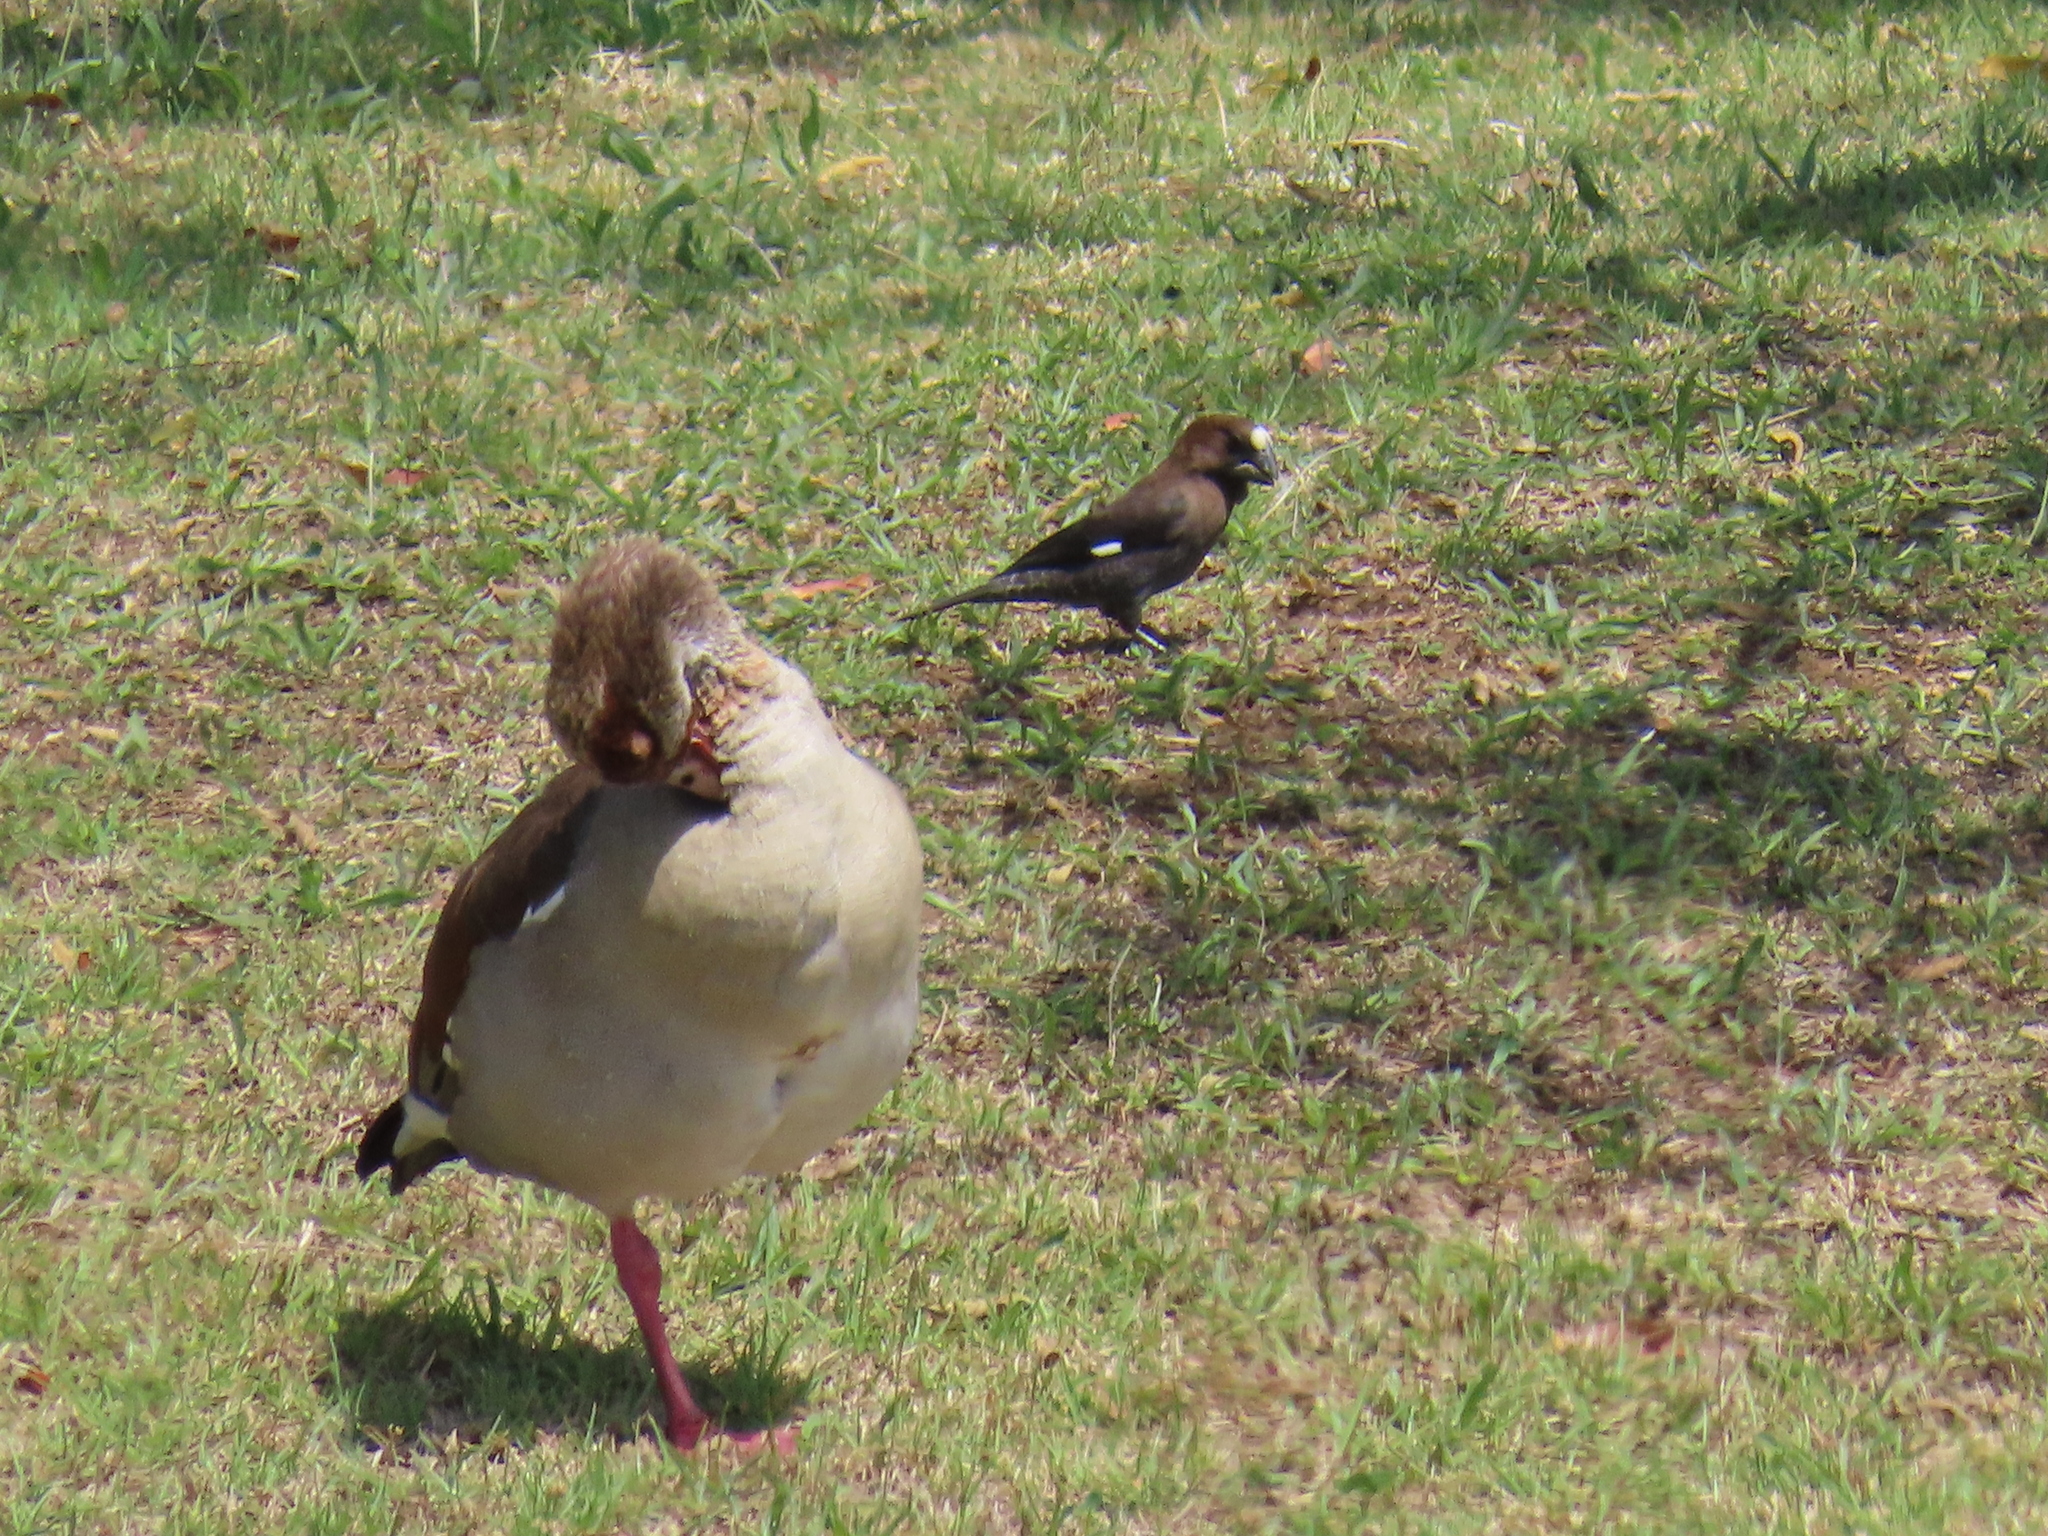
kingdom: Animalia
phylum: Chordata
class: Aves
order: Passeriformes
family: Ploceidae
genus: Amblyospiza
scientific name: Amblyospiza albifrons
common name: Thick-billed weaver
